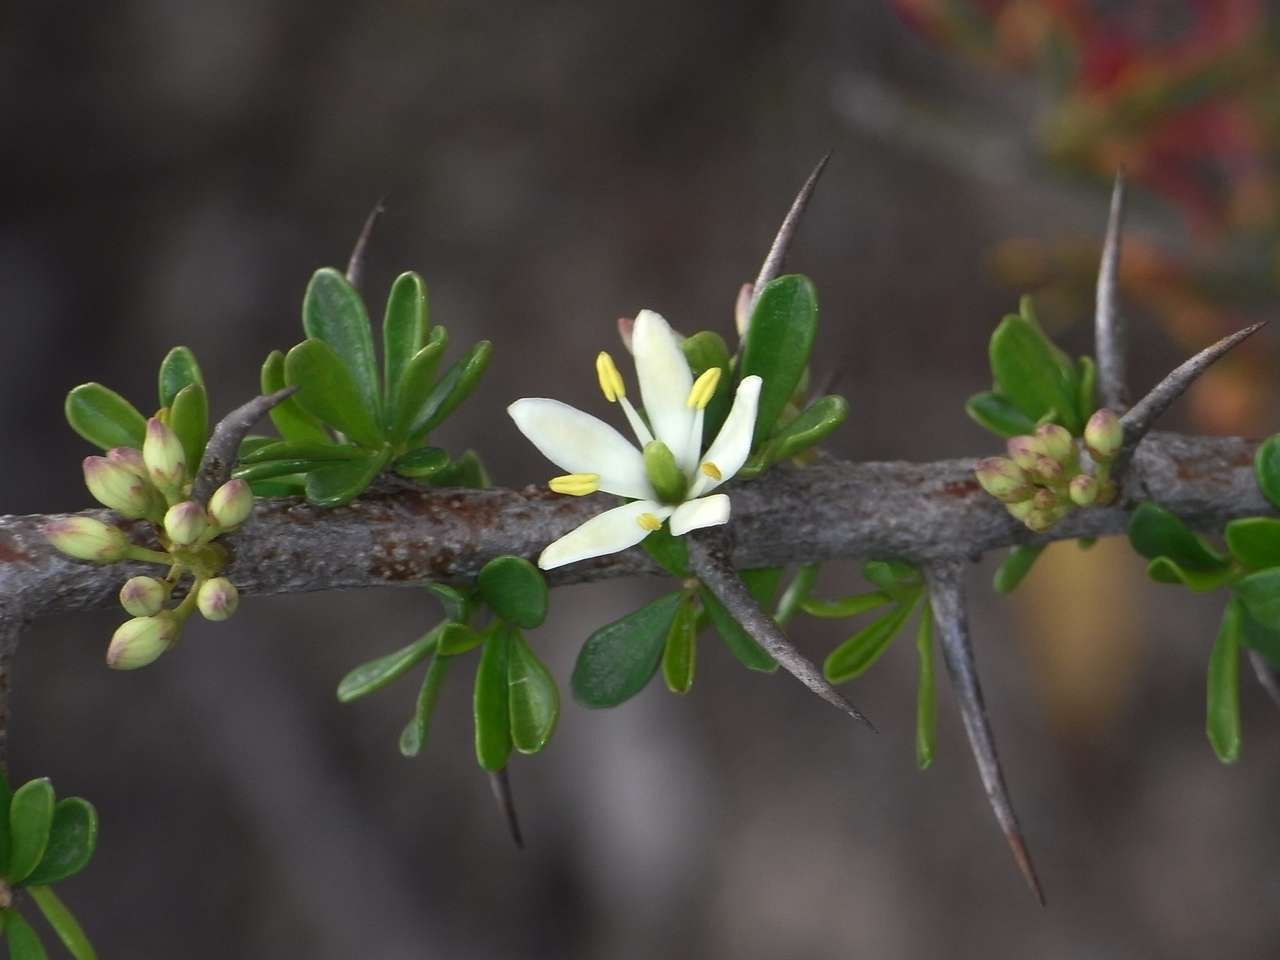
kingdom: Plantae
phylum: Tracheophyta
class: Magnoliopsida
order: Apiales
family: Pittosporaceae
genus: Bursaria
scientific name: Bursaria spinosa
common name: Australian blackthorn
